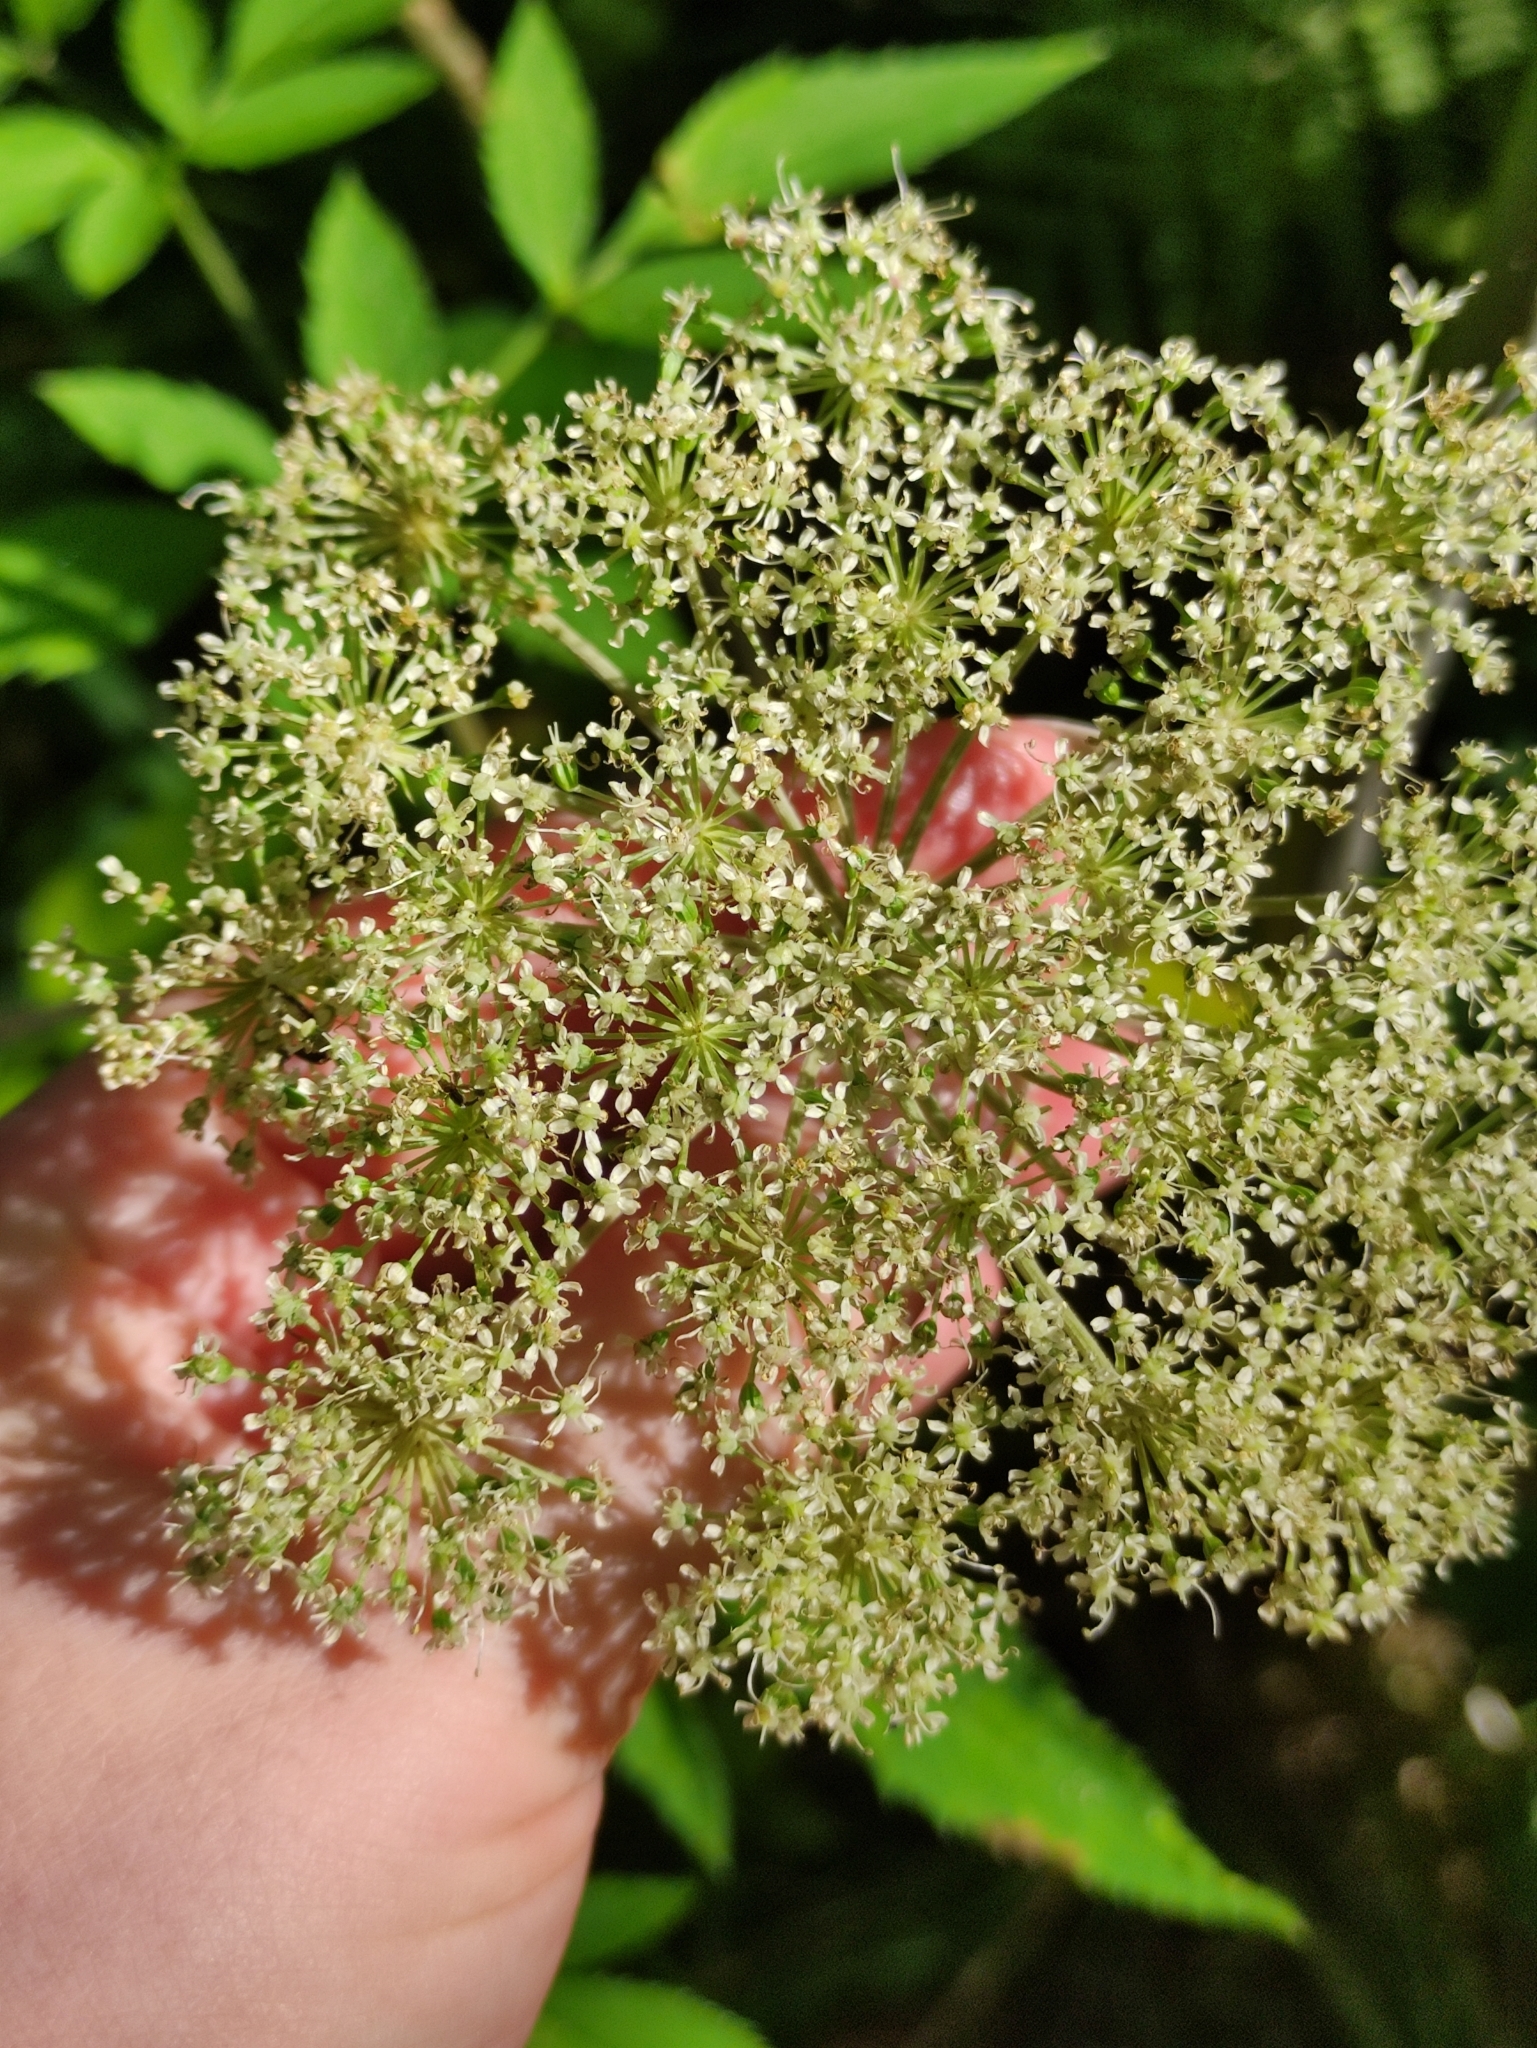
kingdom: Plantae
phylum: Tracheophyta
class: Magnoliopsida
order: Apiales
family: Apiaceae
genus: Angelica
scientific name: Angelica sylvestris
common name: Wild angelica
